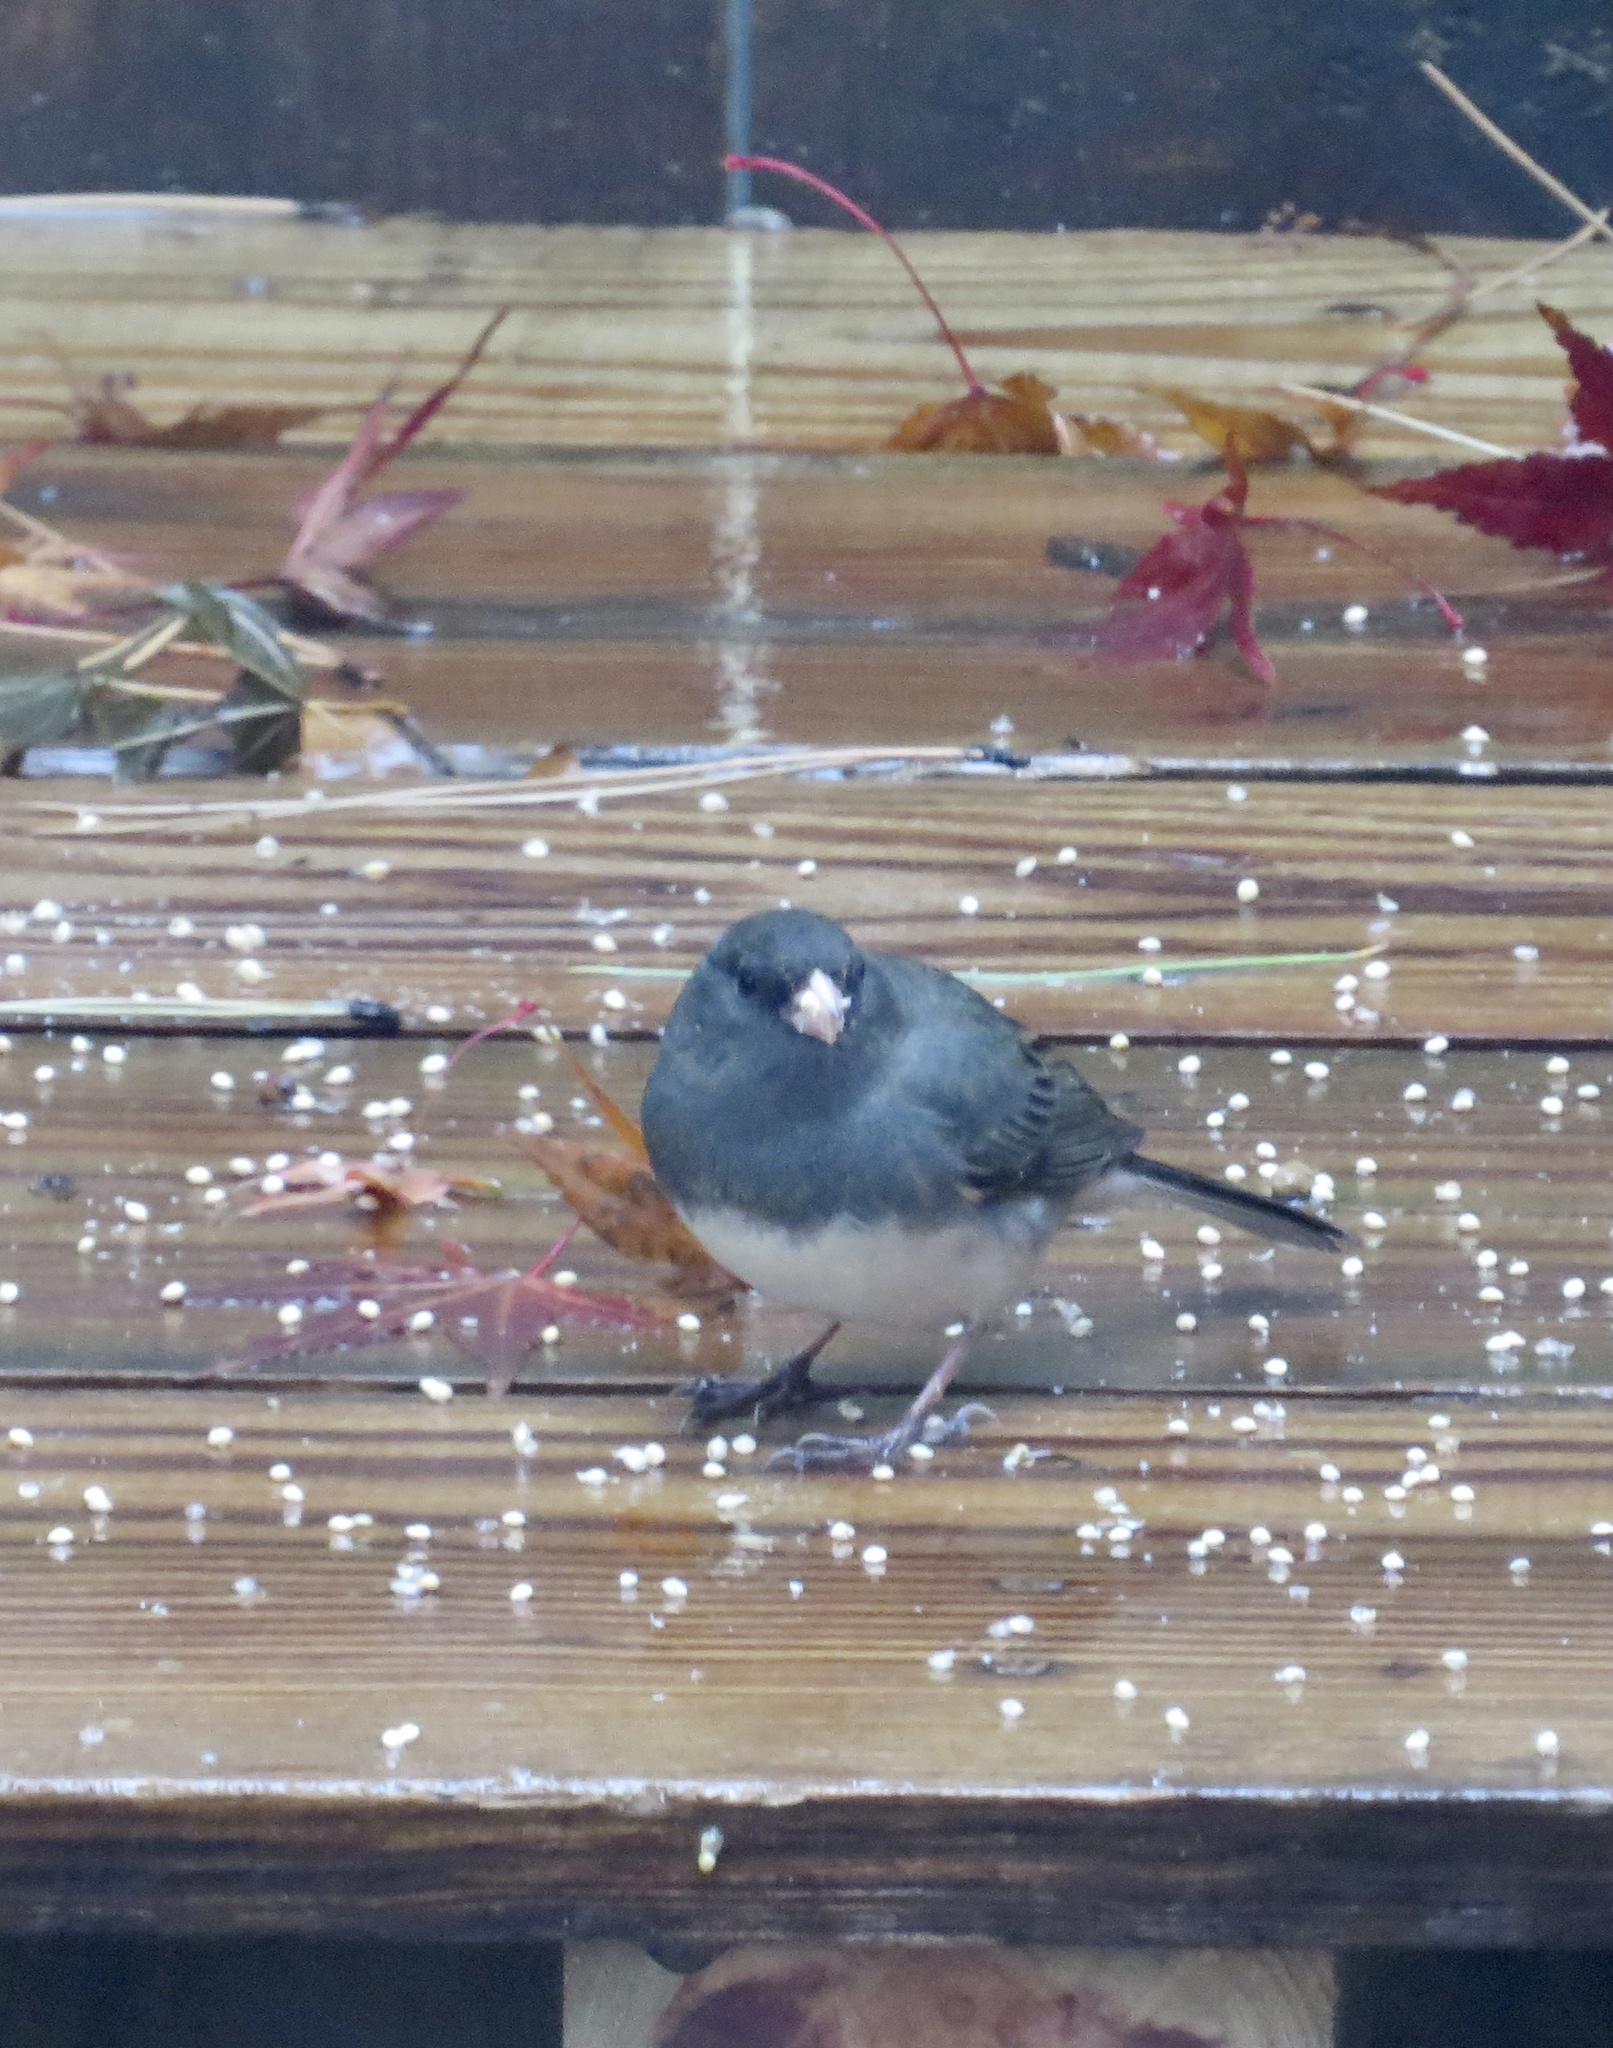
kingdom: Animalia
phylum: Chordata
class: Aves
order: Passeriformes
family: Passerellidae
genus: Junco
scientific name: Junco hyemalis
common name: Dark-eyed junco
